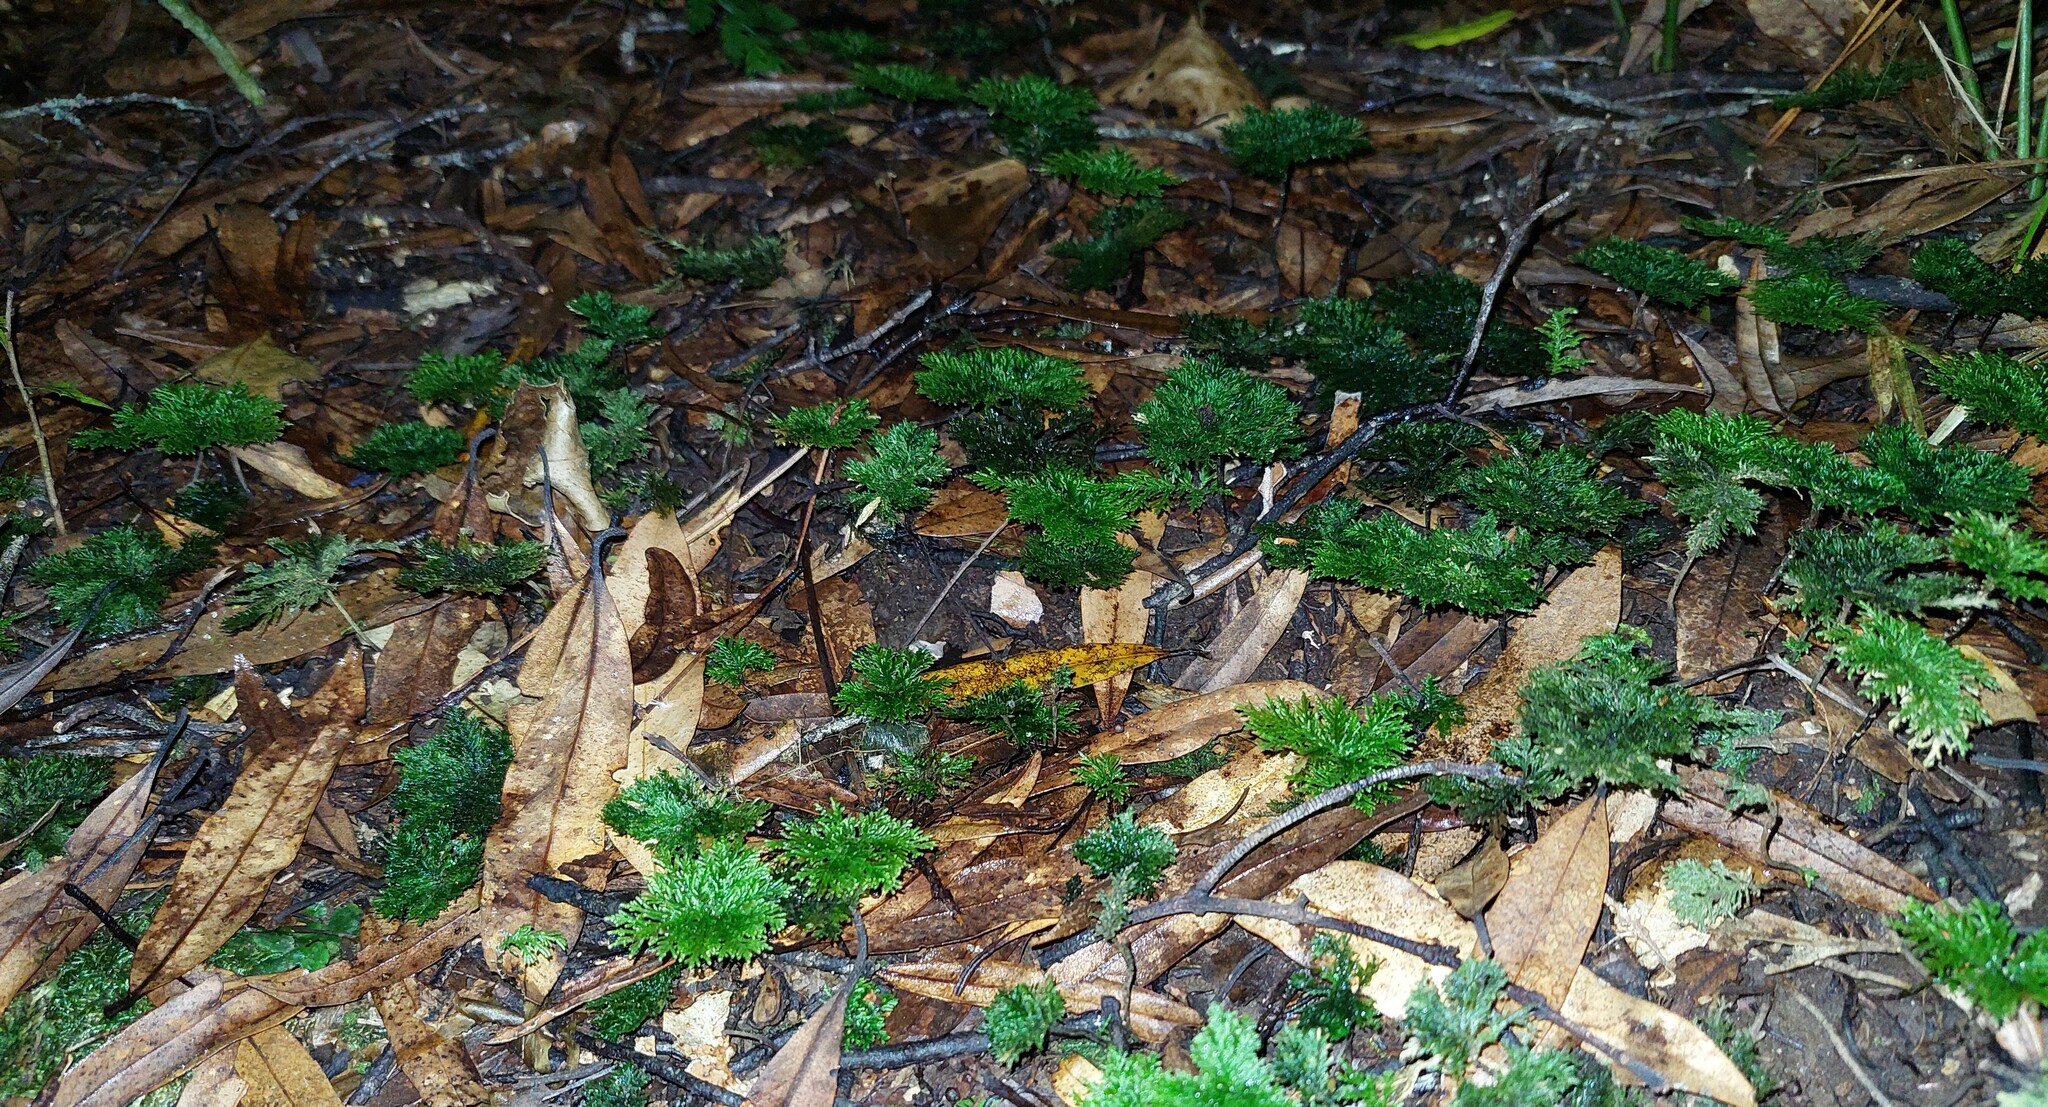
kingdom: Plantae
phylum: Bryophyta
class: Bryopsida
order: Hypopterygiales
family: Hypopterygiaceae
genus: Dendrohypopterygium
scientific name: Dendrohypopterygium filiculiforme
